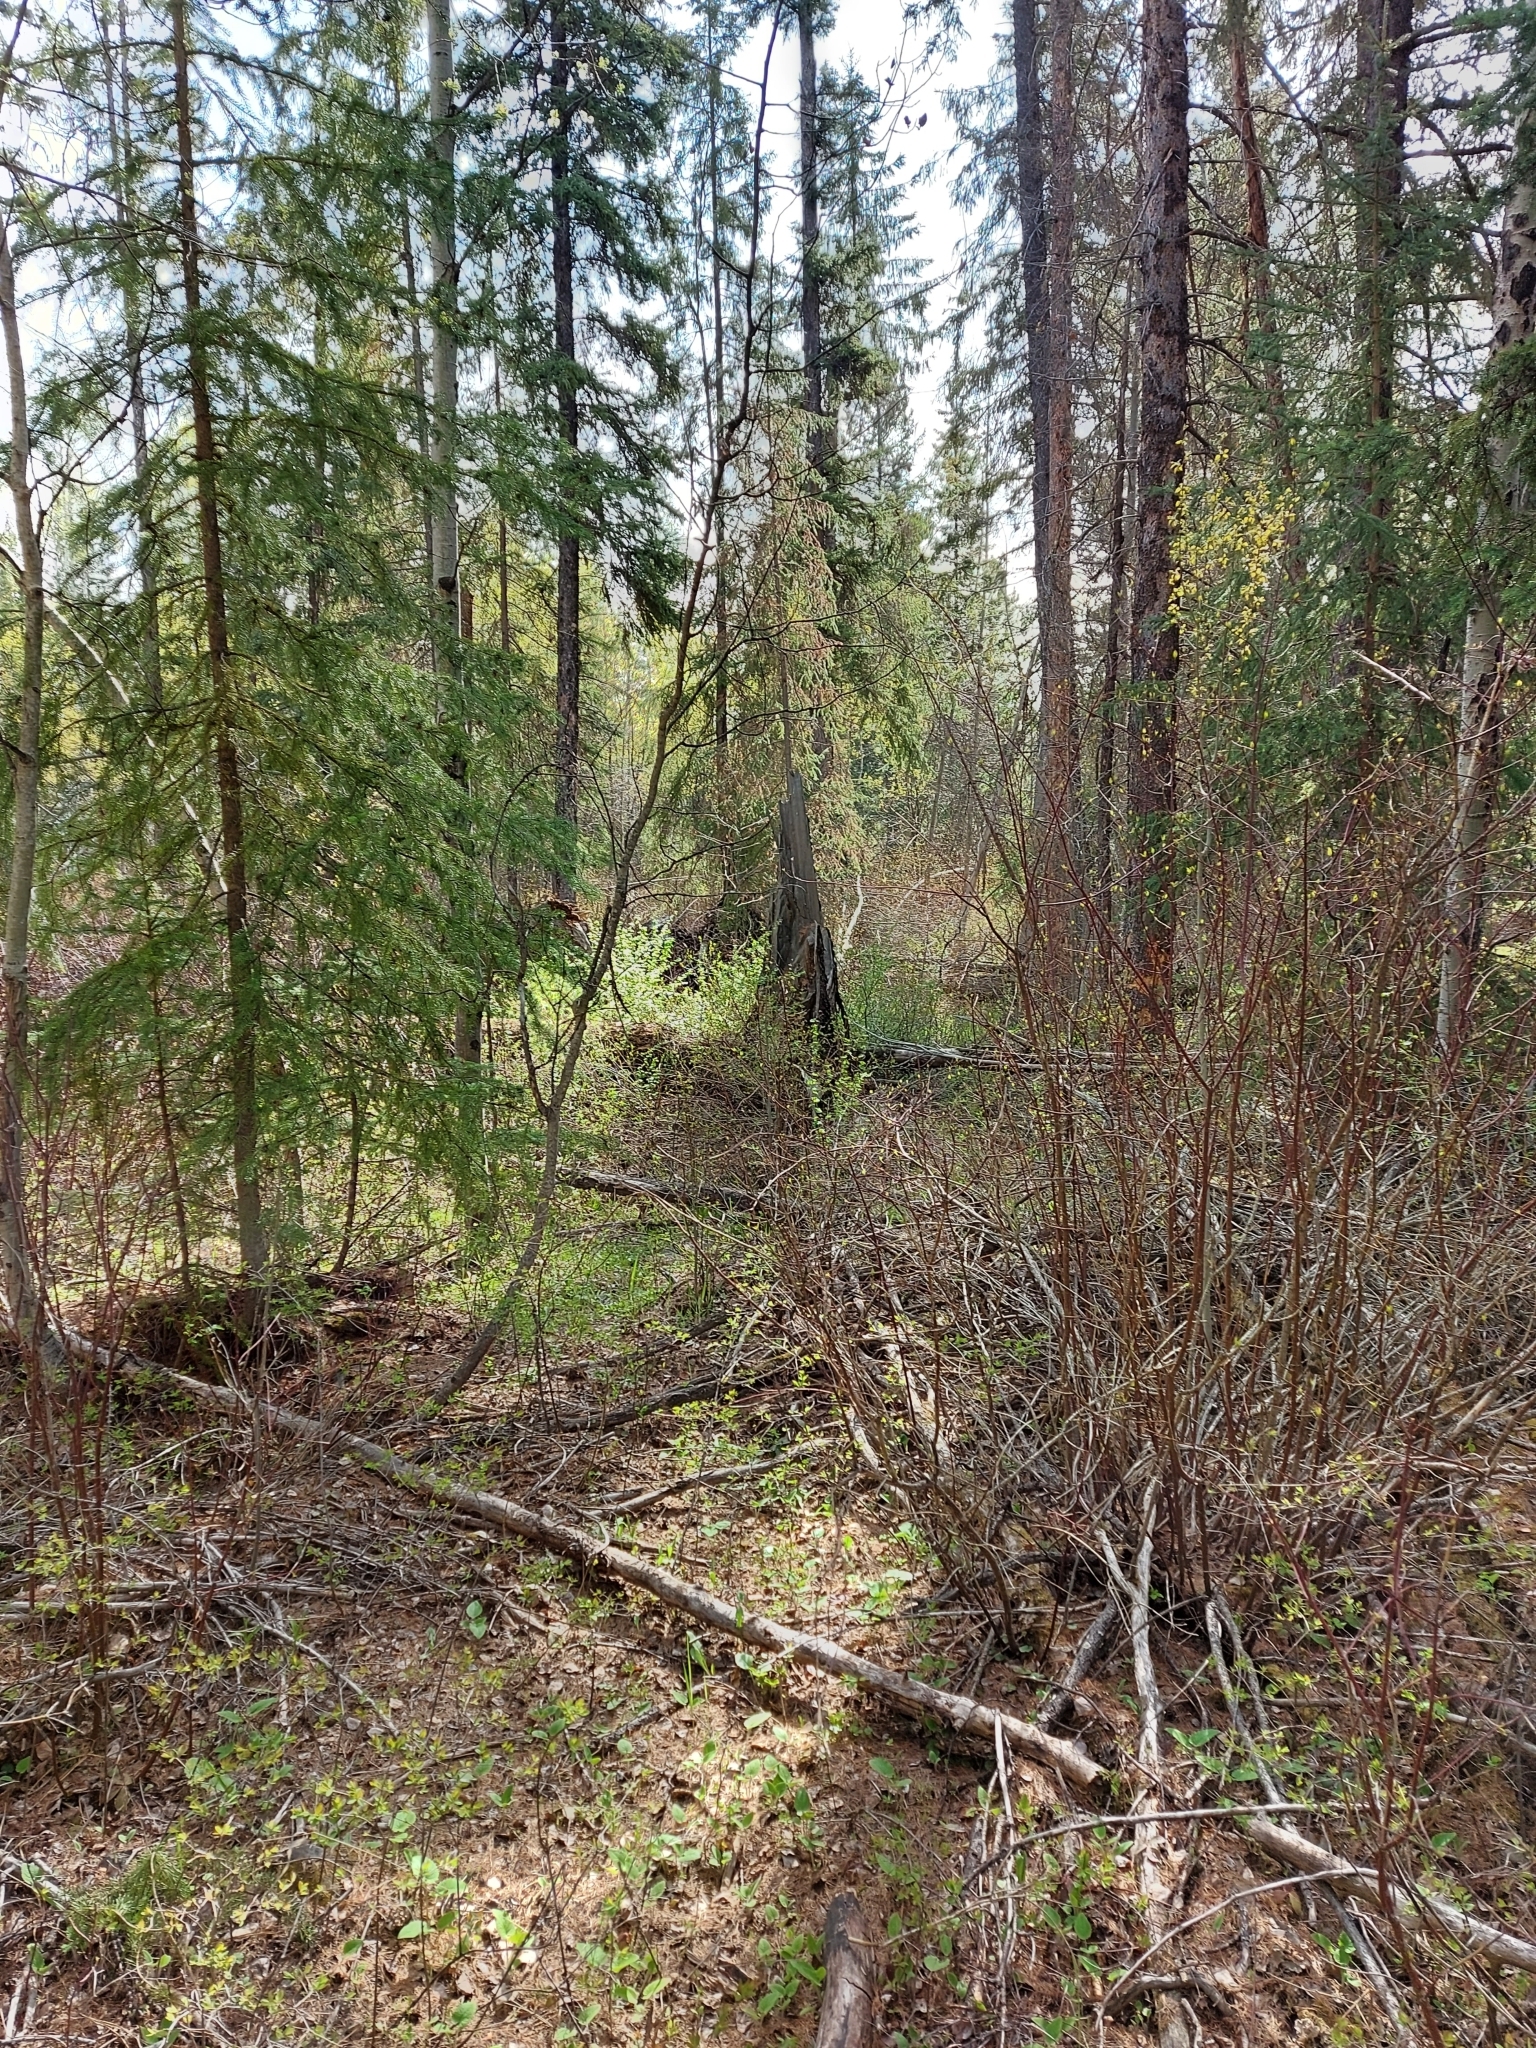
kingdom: Animalia
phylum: Chordata
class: Aves
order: Passeriformes
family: Parulidae
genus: Parkesia
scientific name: Parkesia noveboracensis
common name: Northern waterthrush
